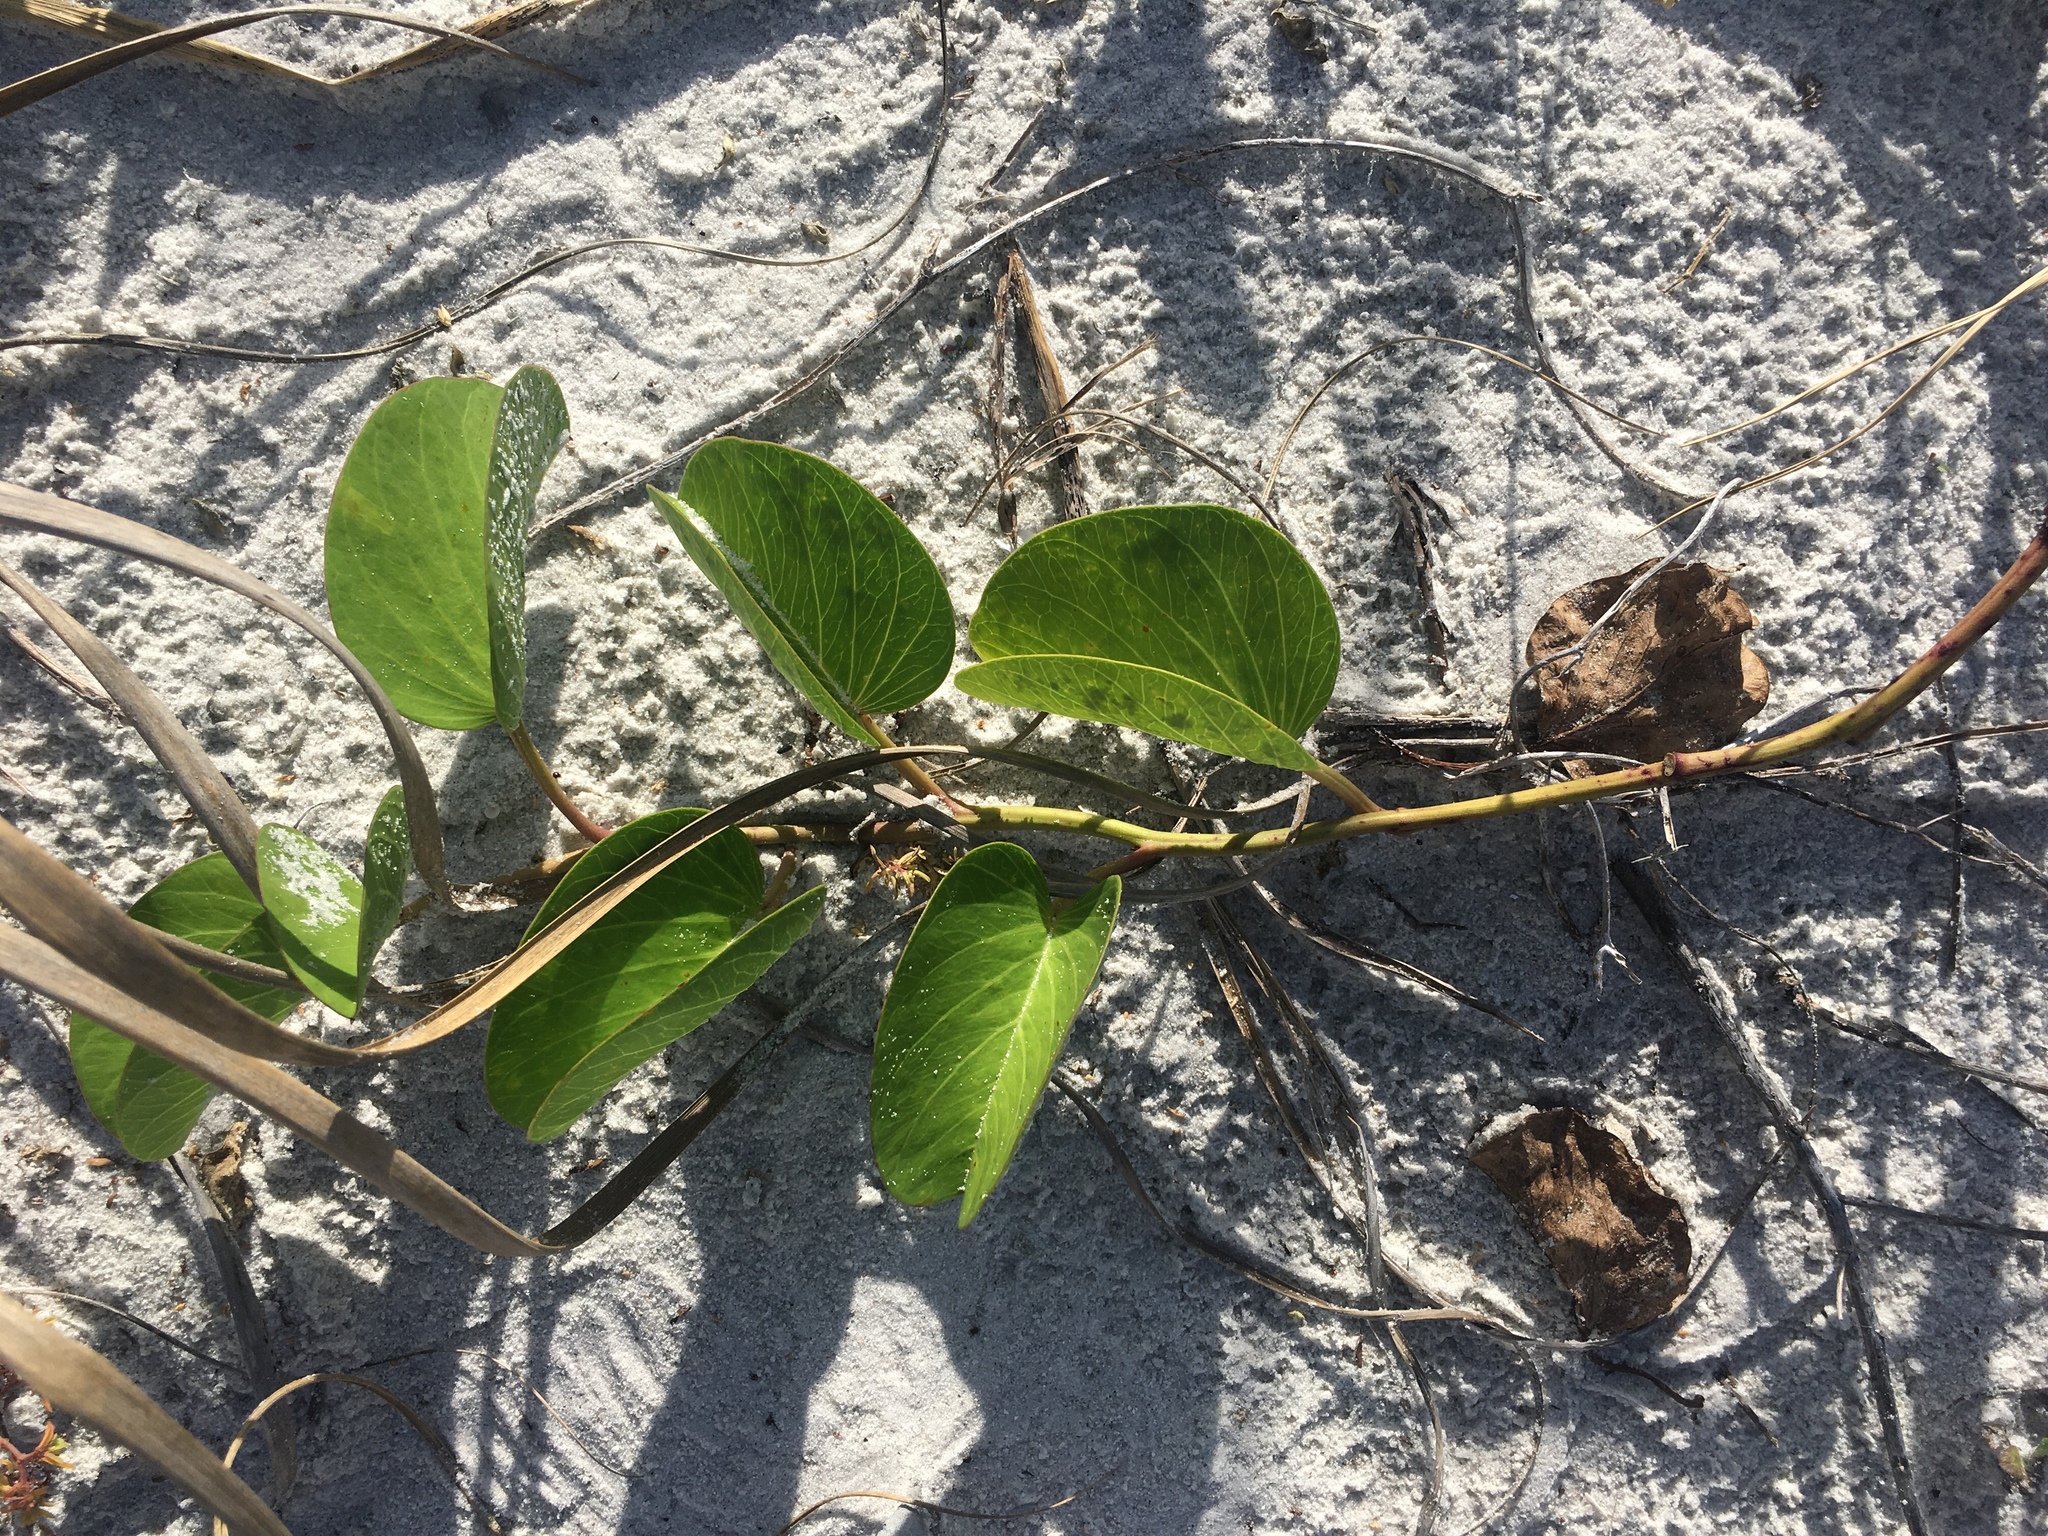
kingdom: Plantae
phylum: Tracheophyta
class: Magnoliopsida
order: Solanales
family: Convolvulaceae
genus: Ipomoea
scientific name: Ipomoea pes-caprae
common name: Beach morning glory
